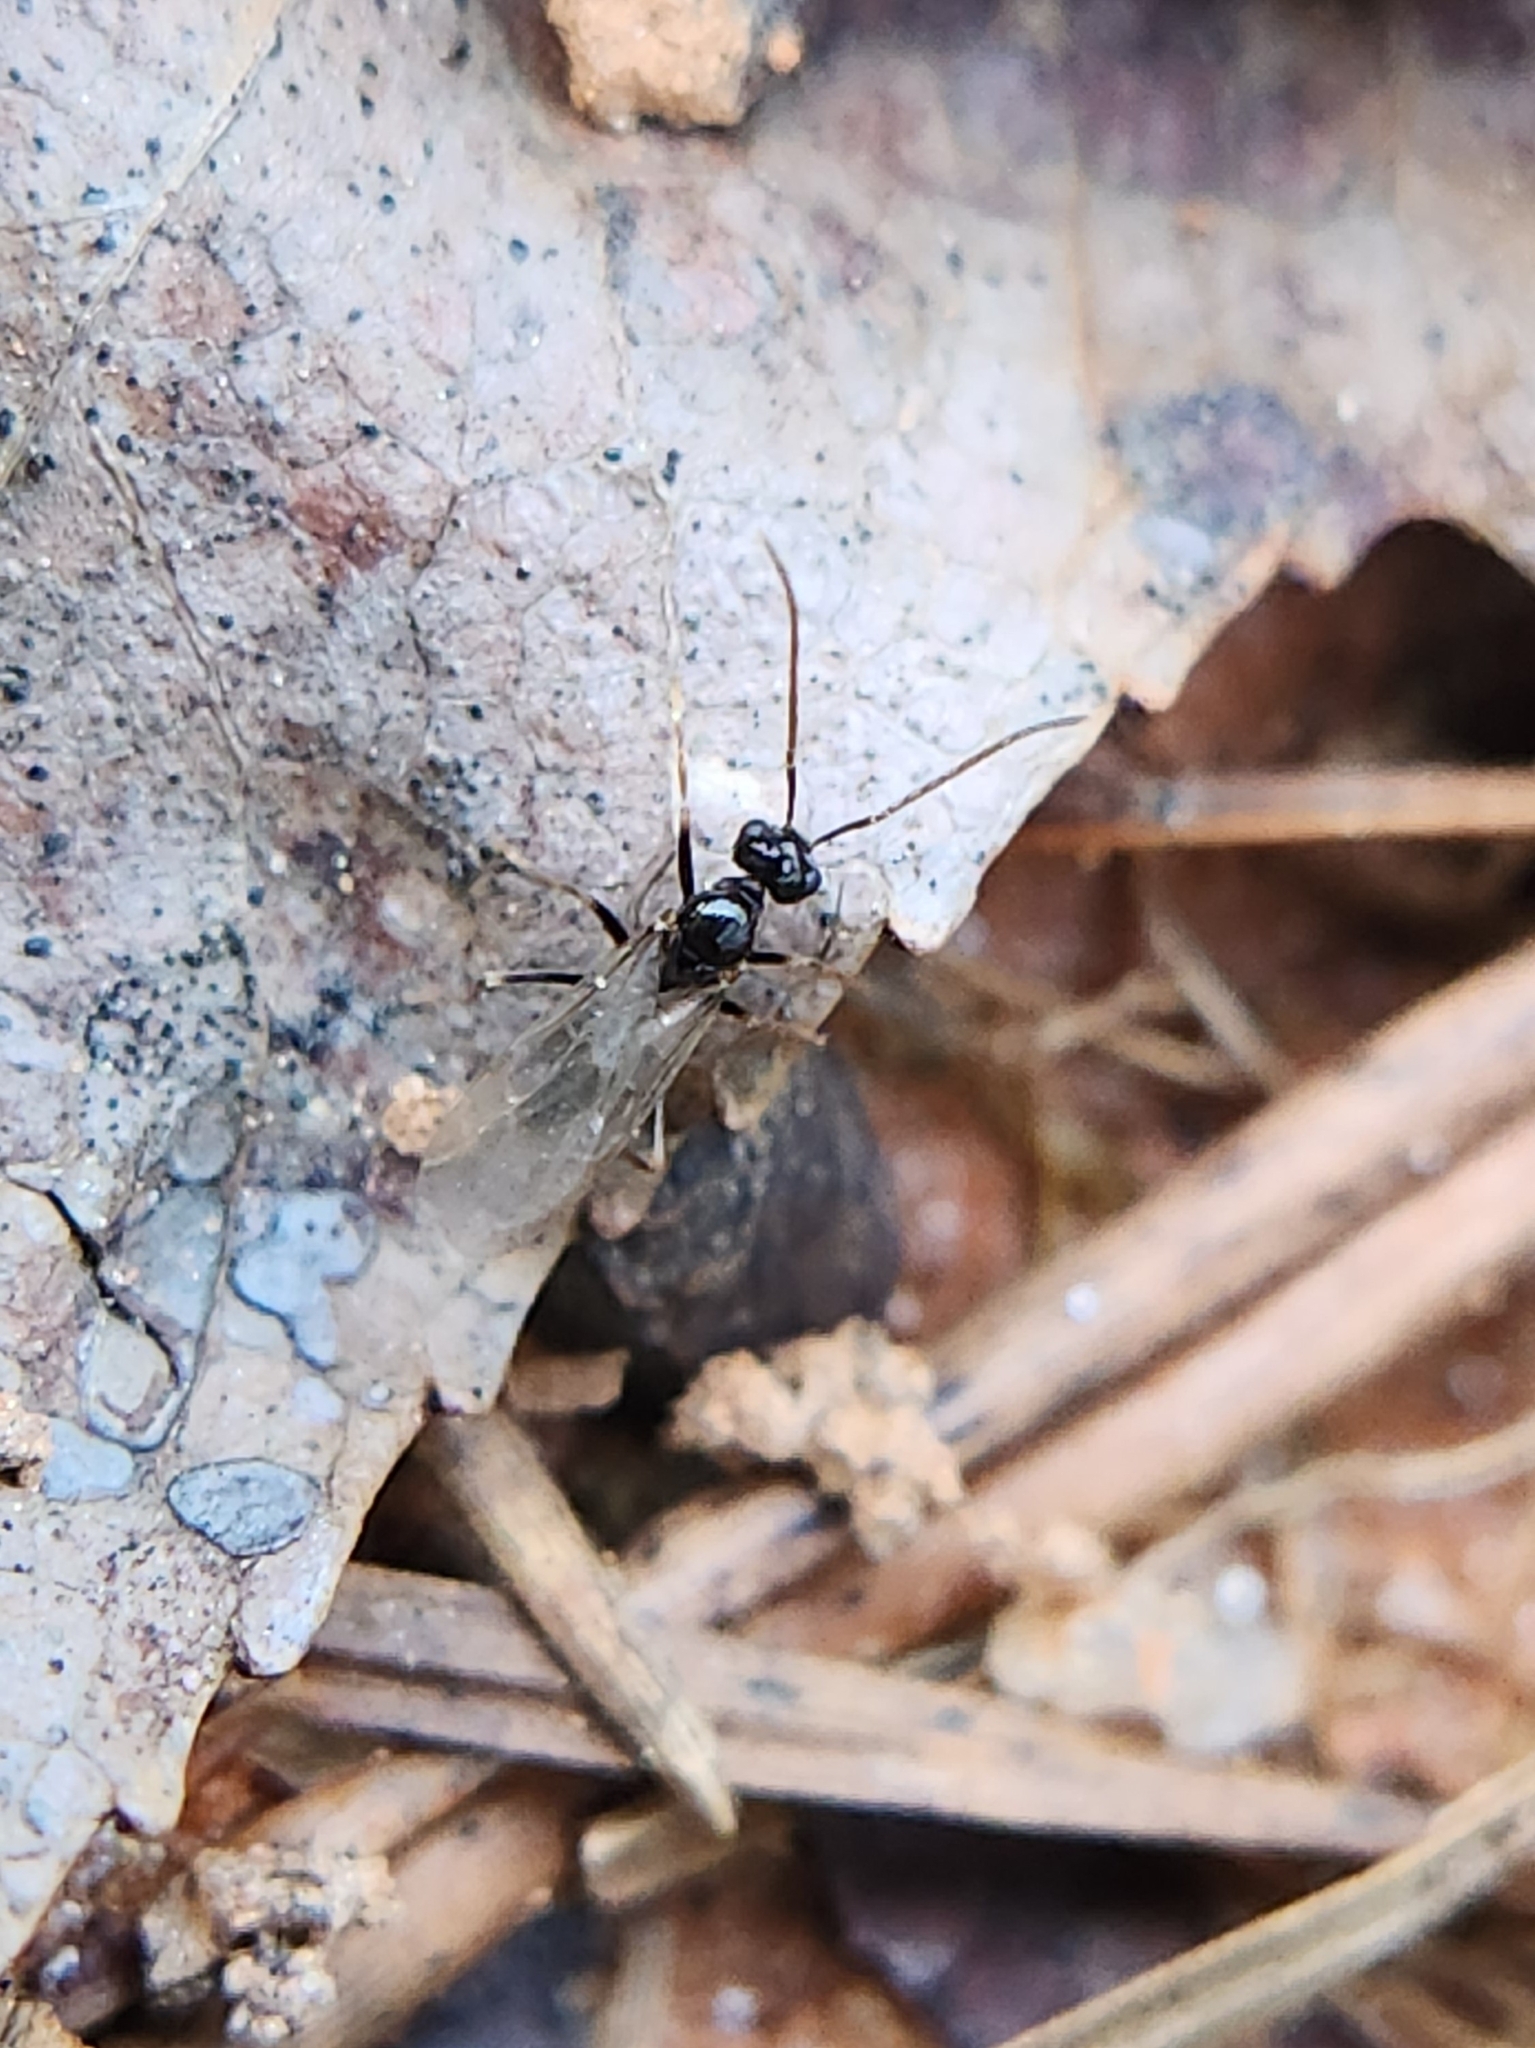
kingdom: Animalia
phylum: Arthropoda
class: Insecta
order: Hymenoptera
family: Formicidae
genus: Prenolepis
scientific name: Prenolepis imparis
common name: Small honey ant
